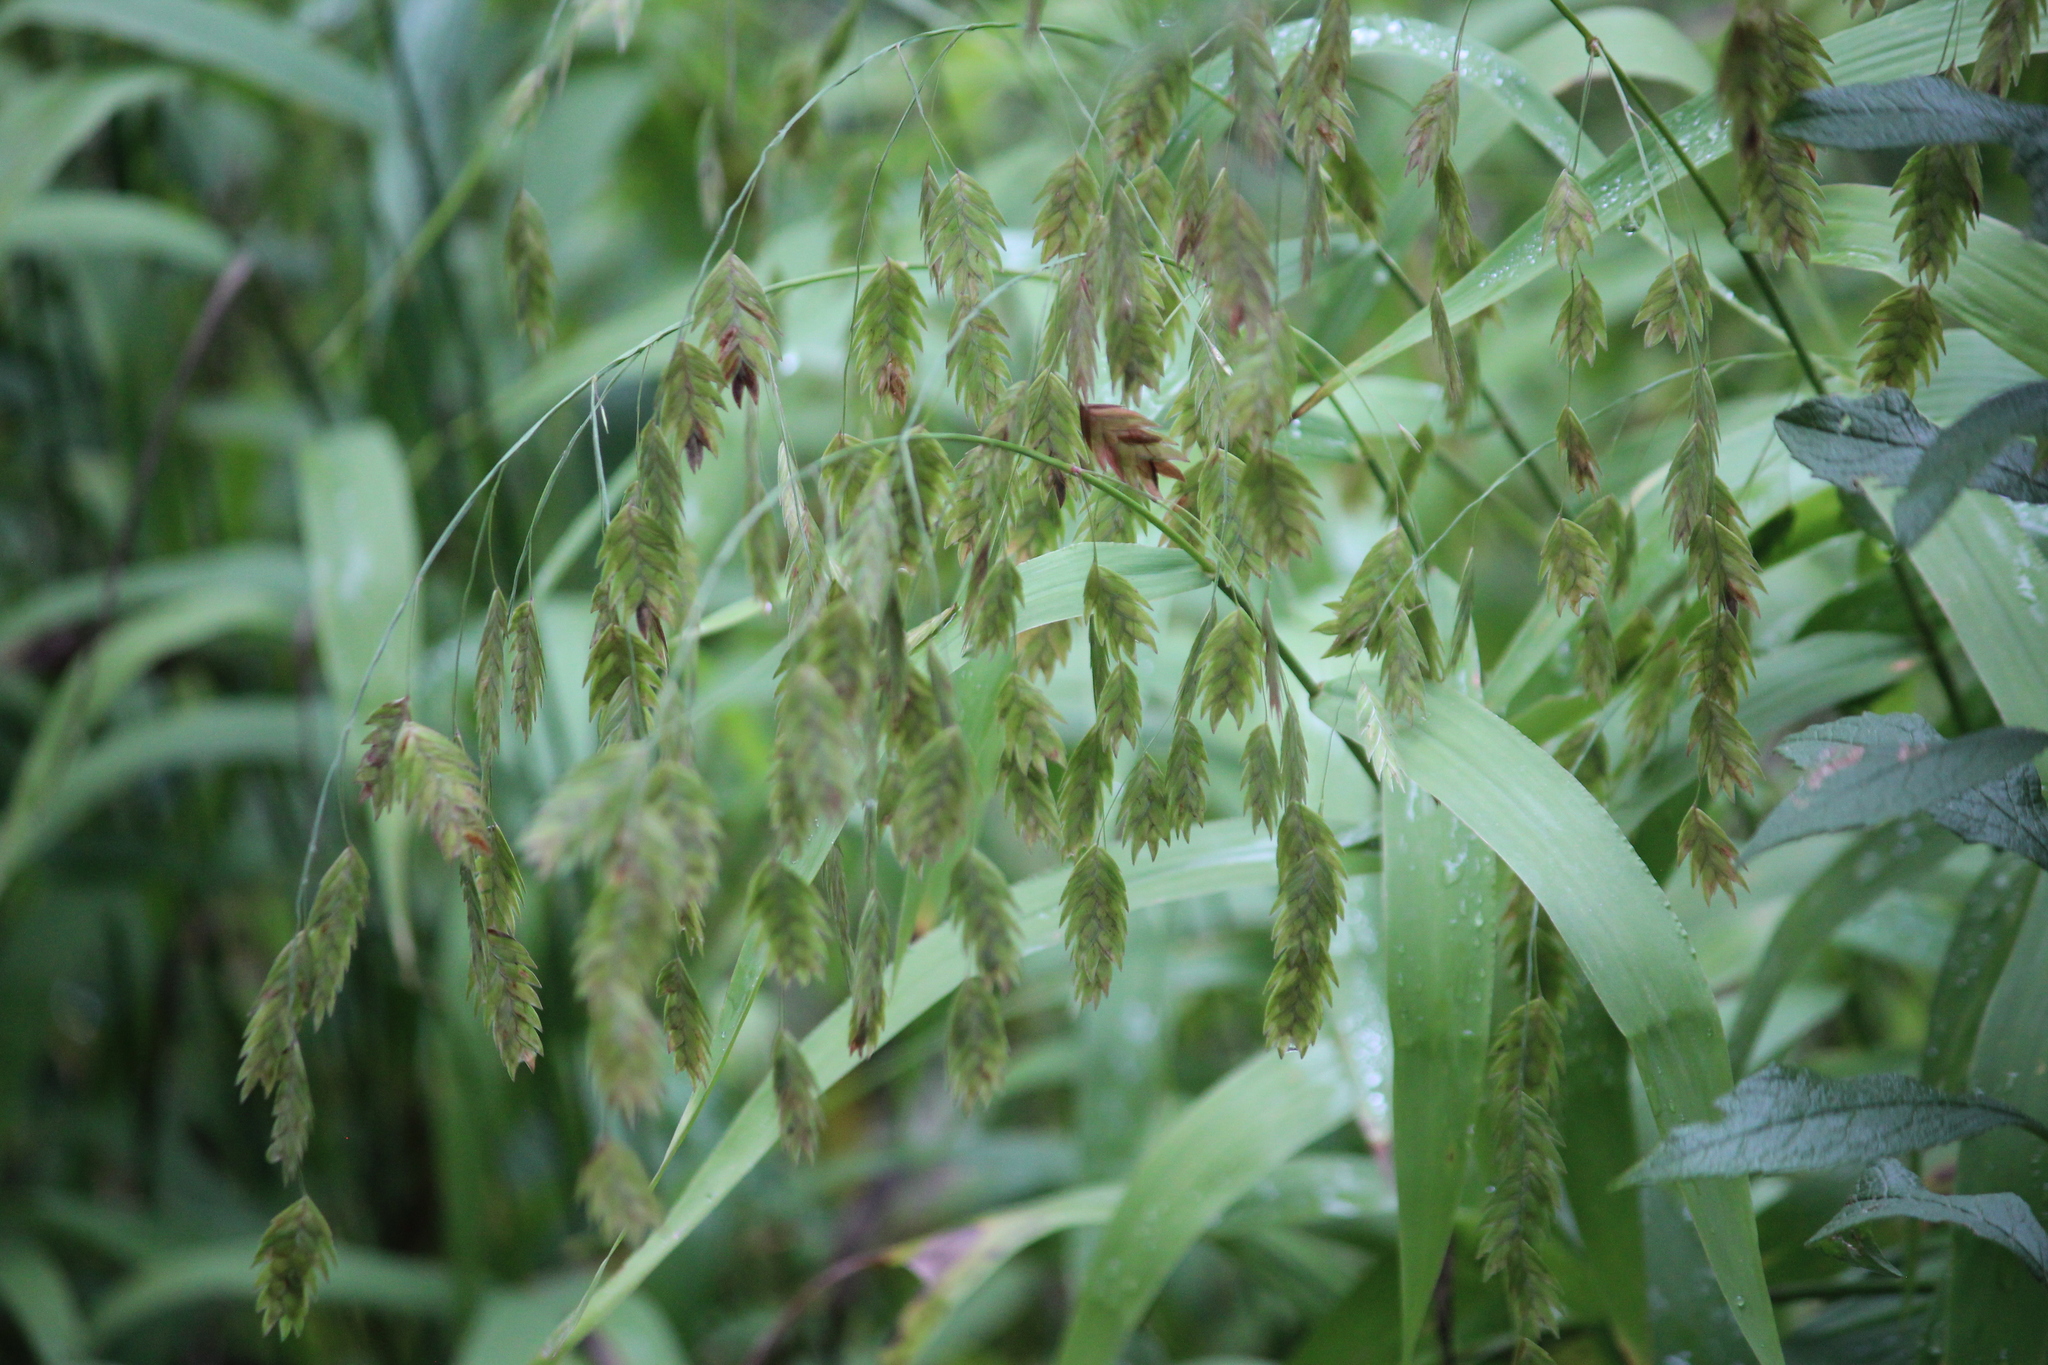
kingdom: Plantae
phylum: Tracheophyta
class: Liliopsida
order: Poales
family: Poaceae
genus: Chasmanthium
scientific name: Chasmanthium latifolium
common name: Broad-leaved chasmanthium
